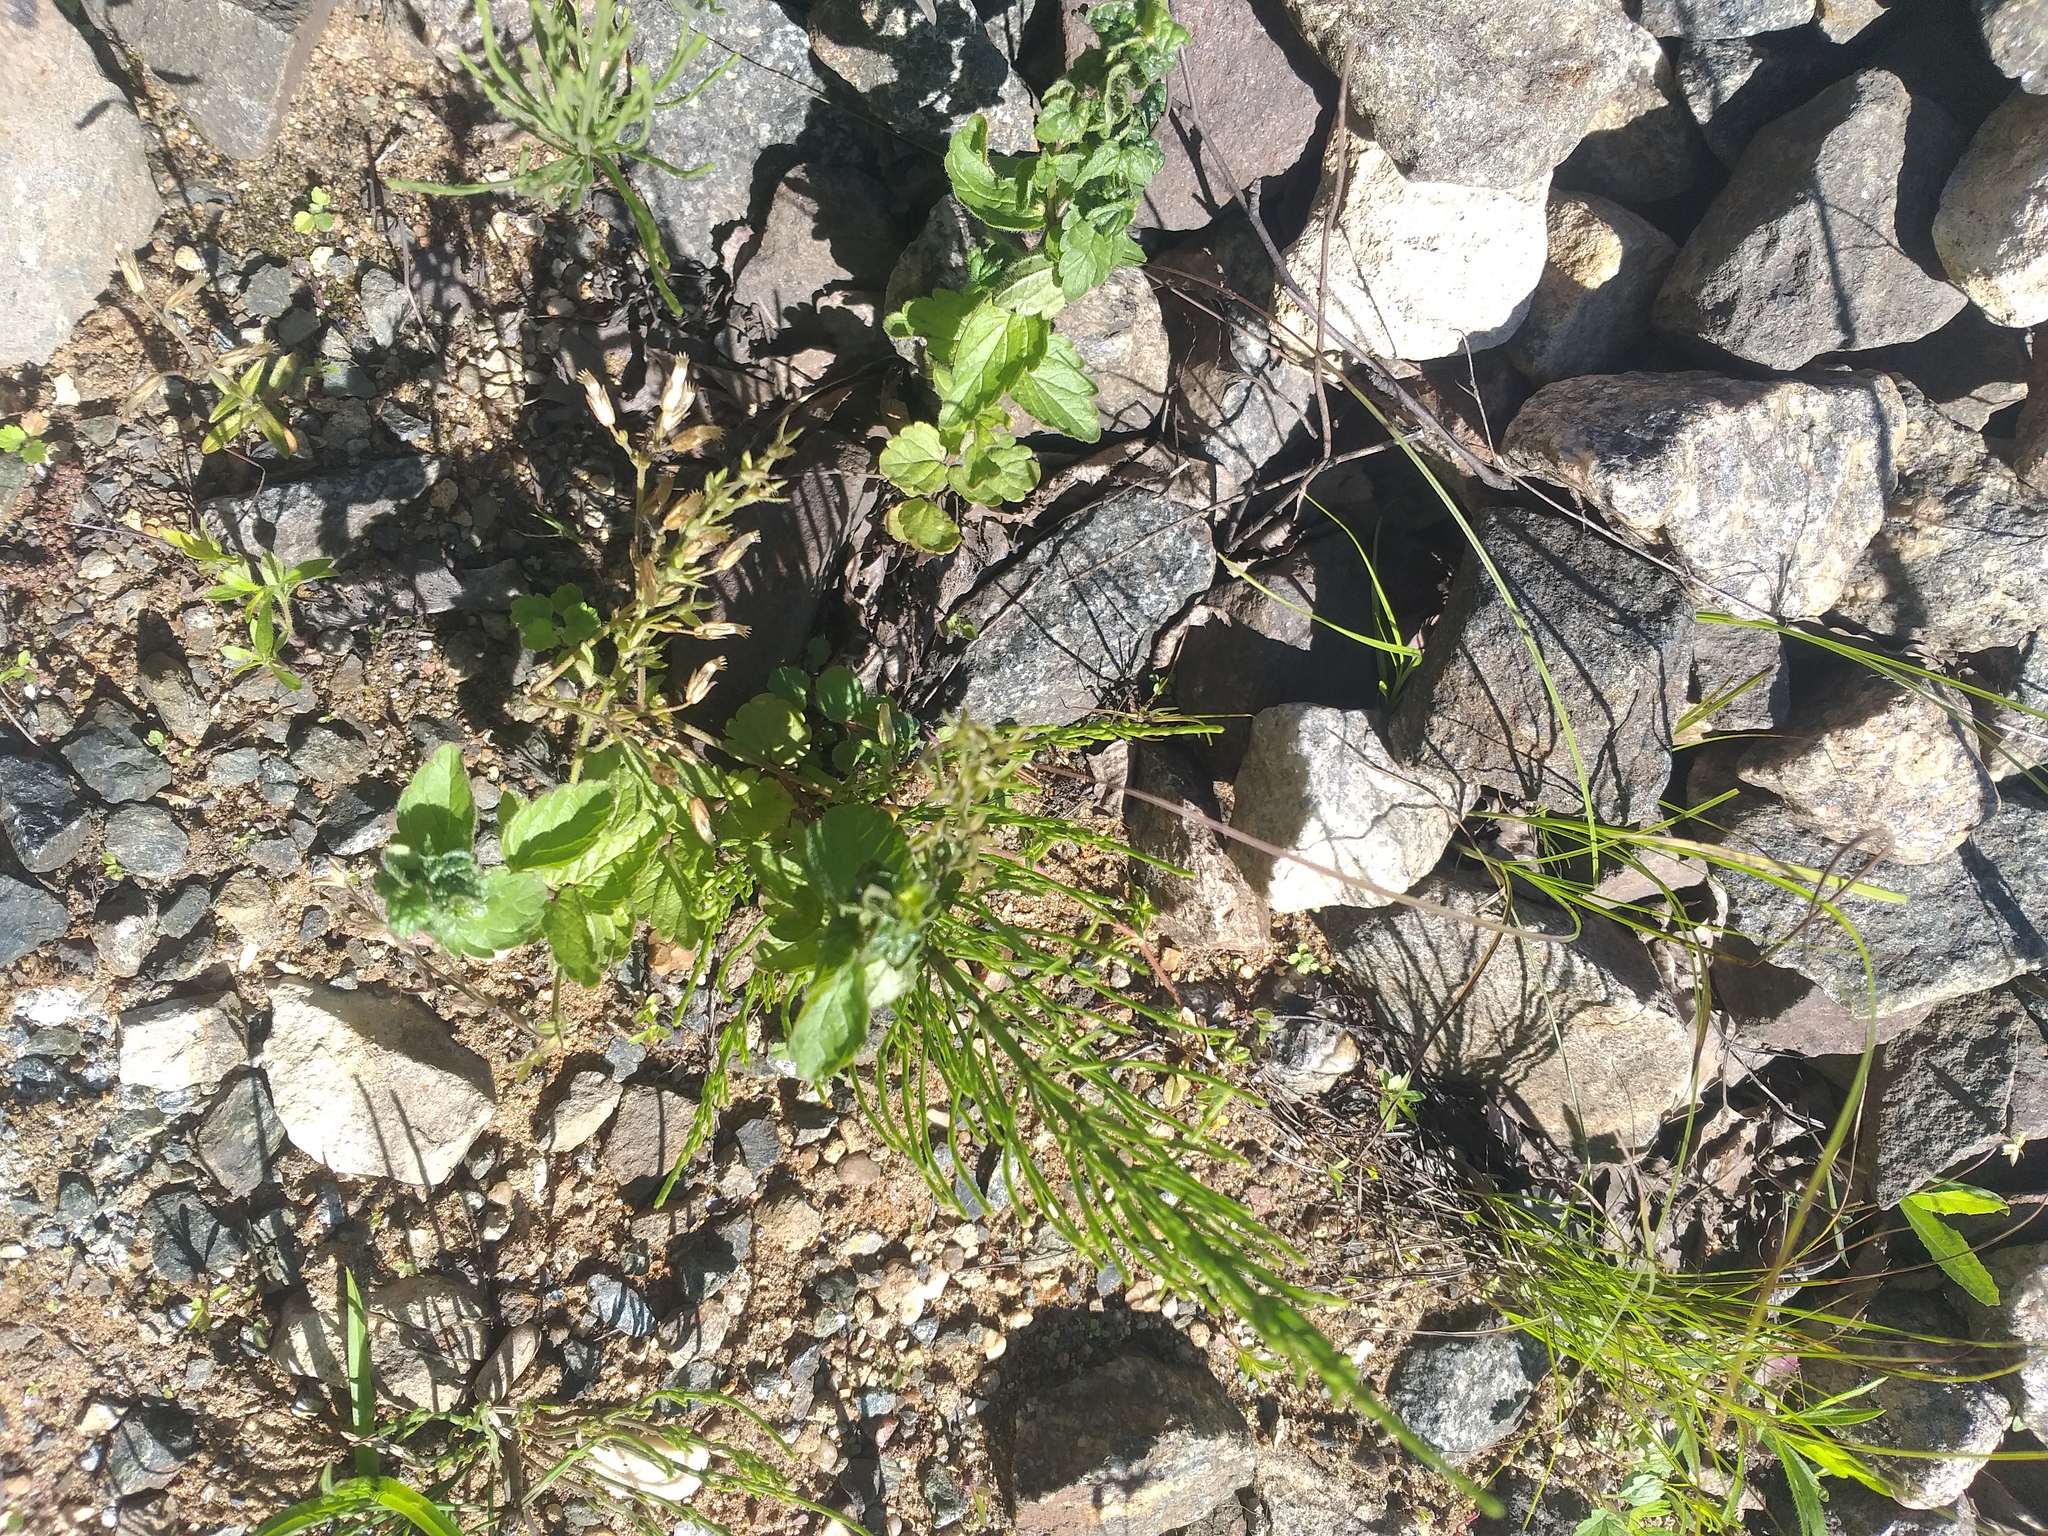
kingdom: Plantae
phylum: Tracheophyta
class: Polypodiopsida
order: Equisetales
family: Equisetaceae
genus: Equisetum
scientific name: Equisetum arvense
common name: Field horsetail
